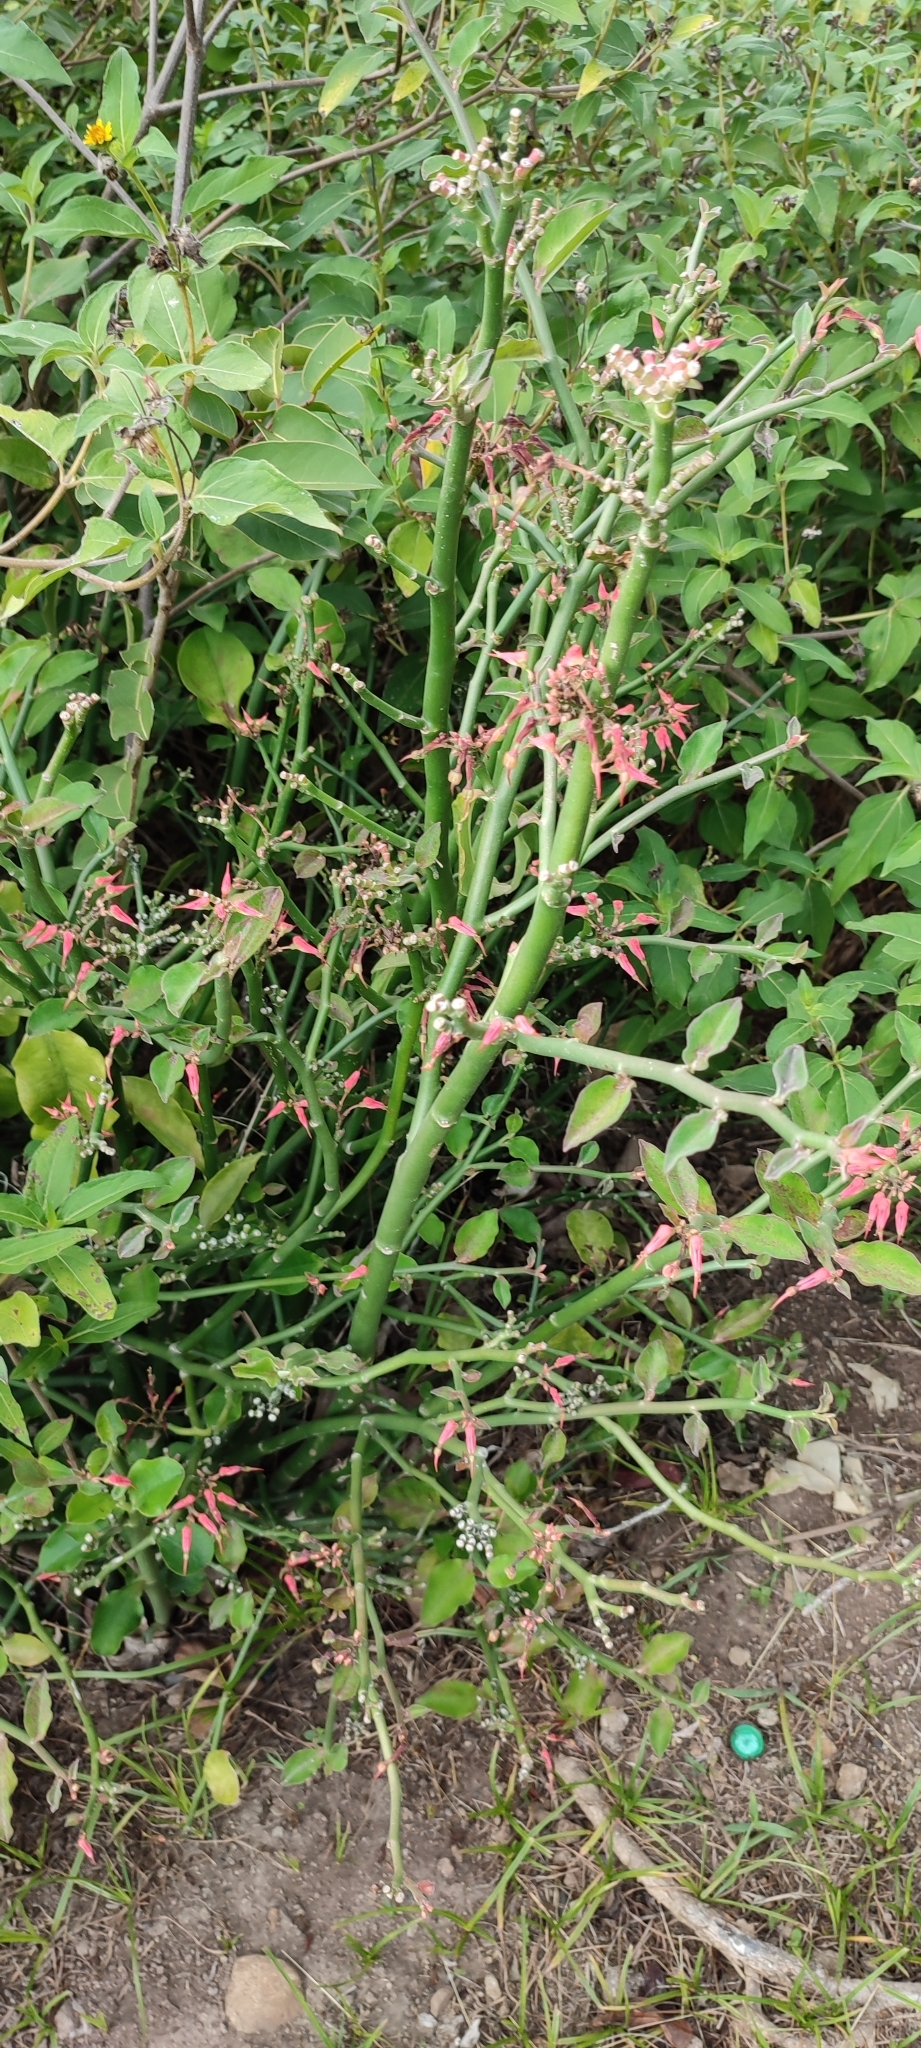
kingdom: Plantae
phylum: Tracheophyta
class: Magnoliopsida
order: Malpighiales
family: Euphorbiaceae
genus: Euphorbia
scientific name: Euphorbia tithymaloides
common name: Slipperplant
